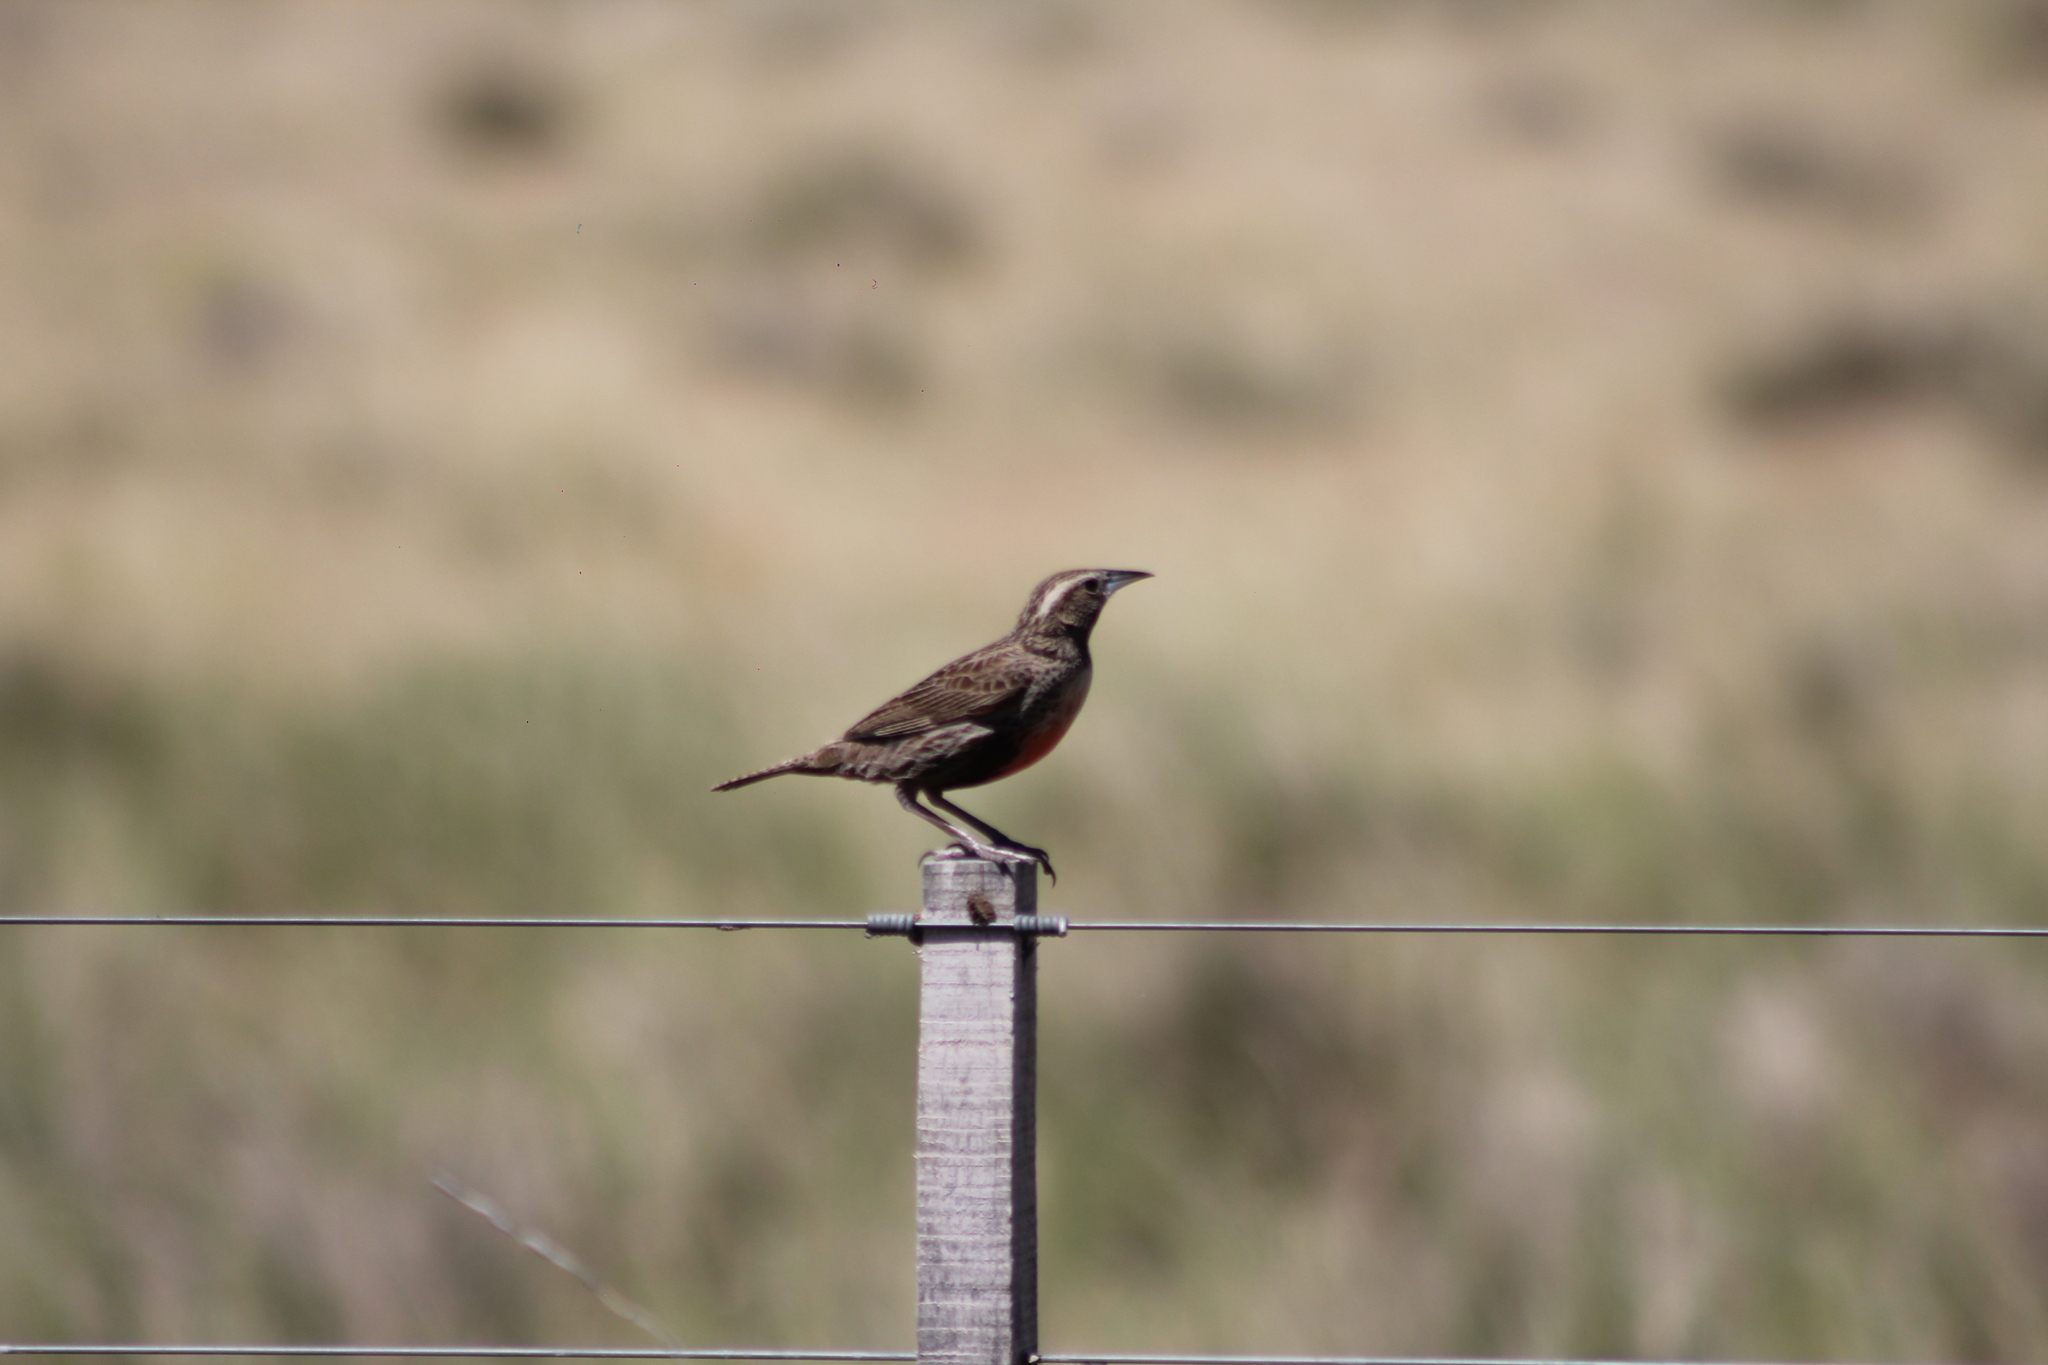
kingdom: Animalia
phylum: Chordata
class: Aves
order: Passeriformes
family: Icteridae
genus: Sturnella
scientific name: Sturnella loyca
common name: Long-tailed meadowlark
